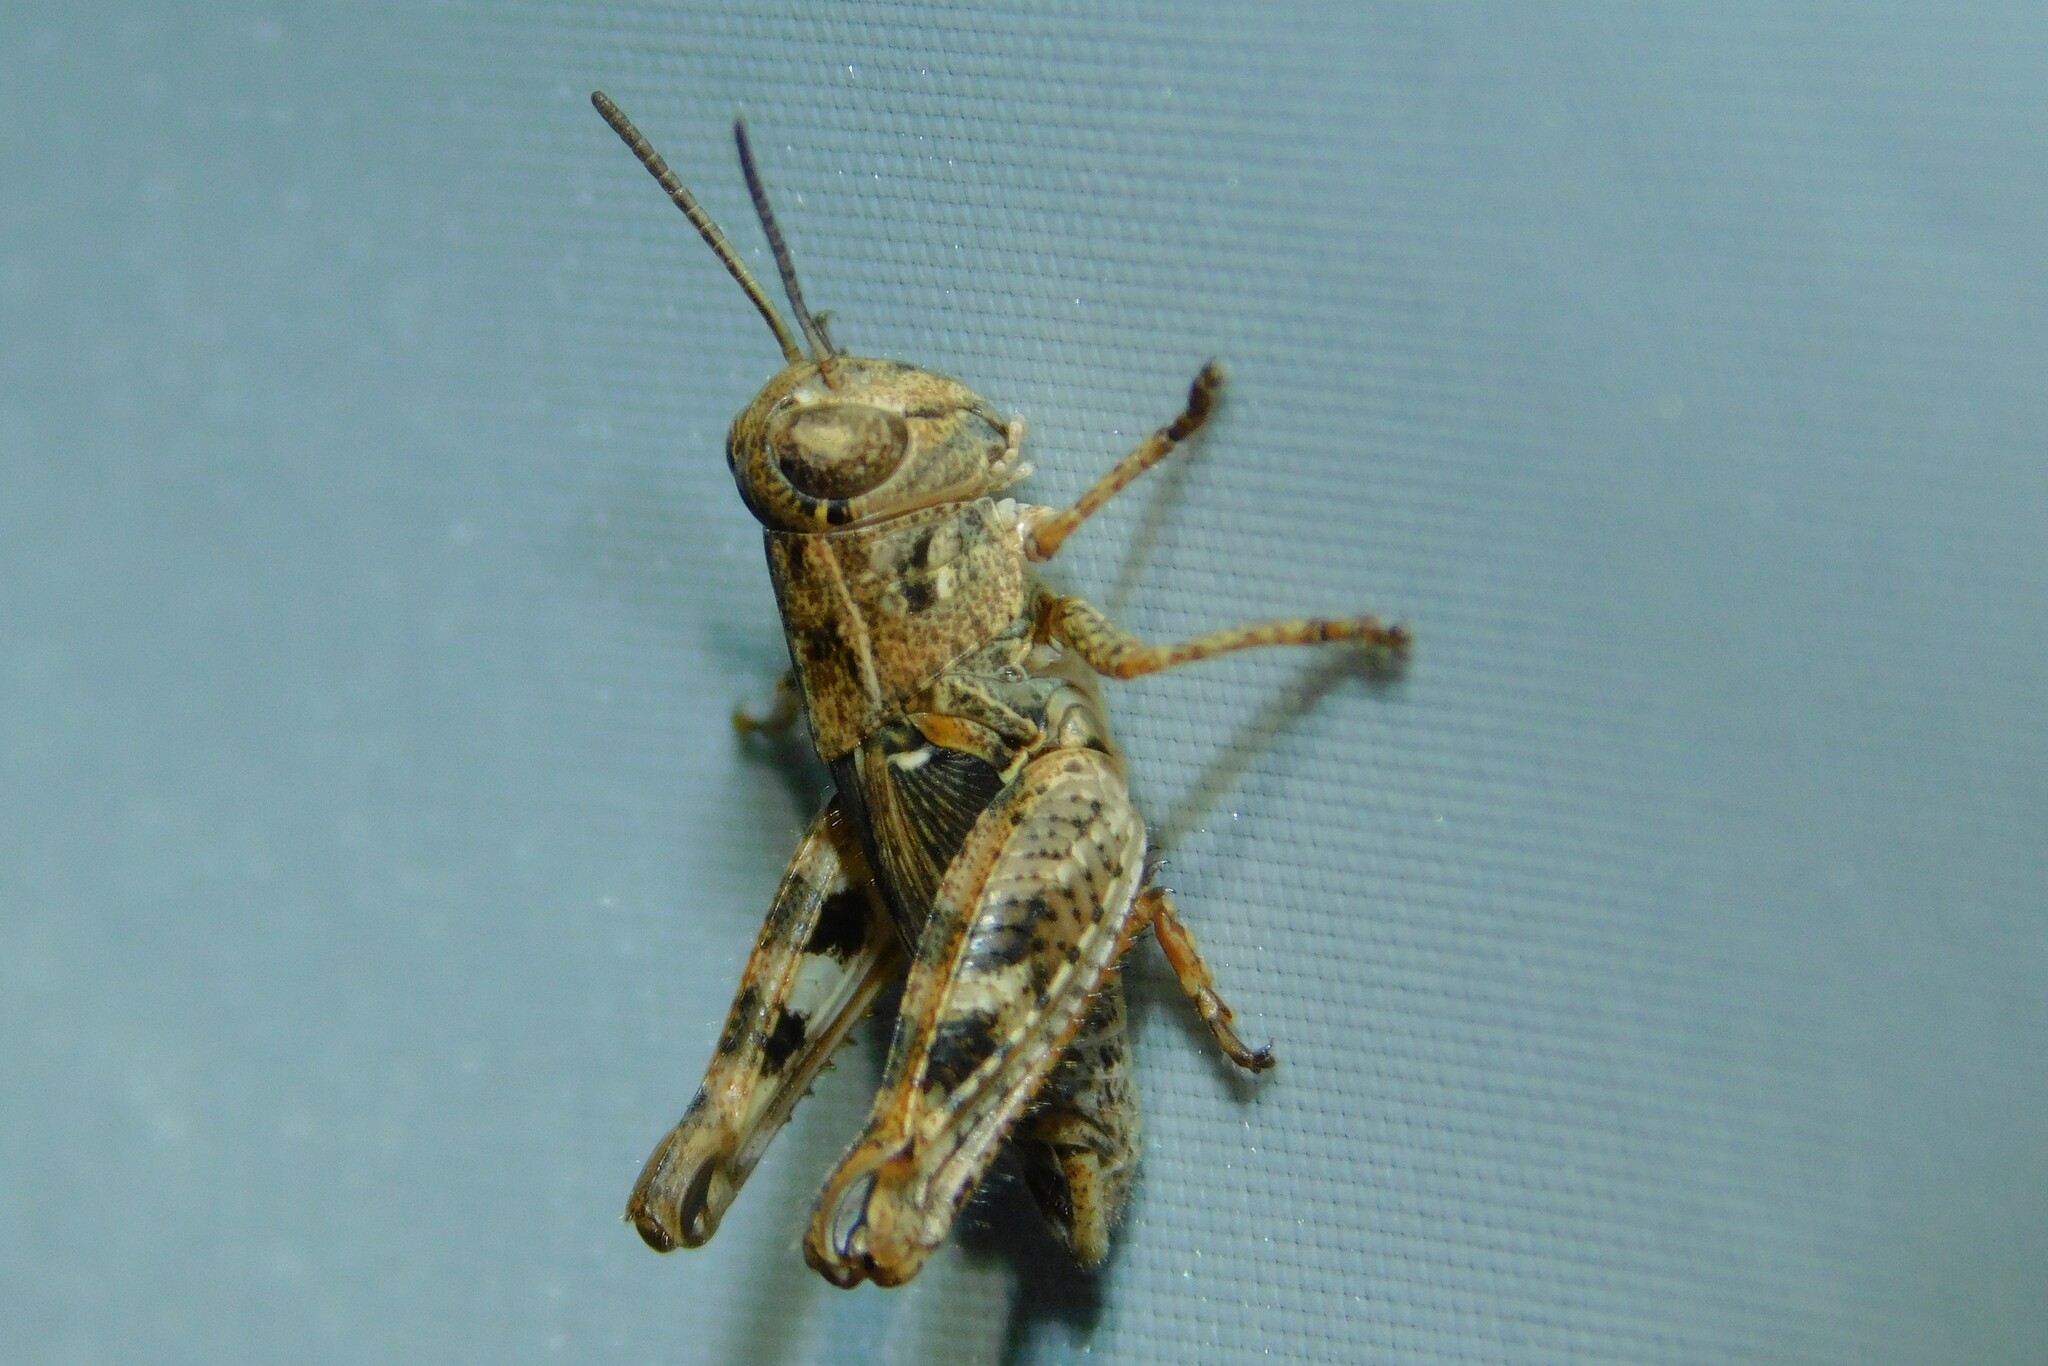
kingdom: Animalia
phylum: Arthropoda
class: Insecta
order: Orthoptera
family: Acrididae
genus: Calliptamus
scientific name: Calliptamus italicus
